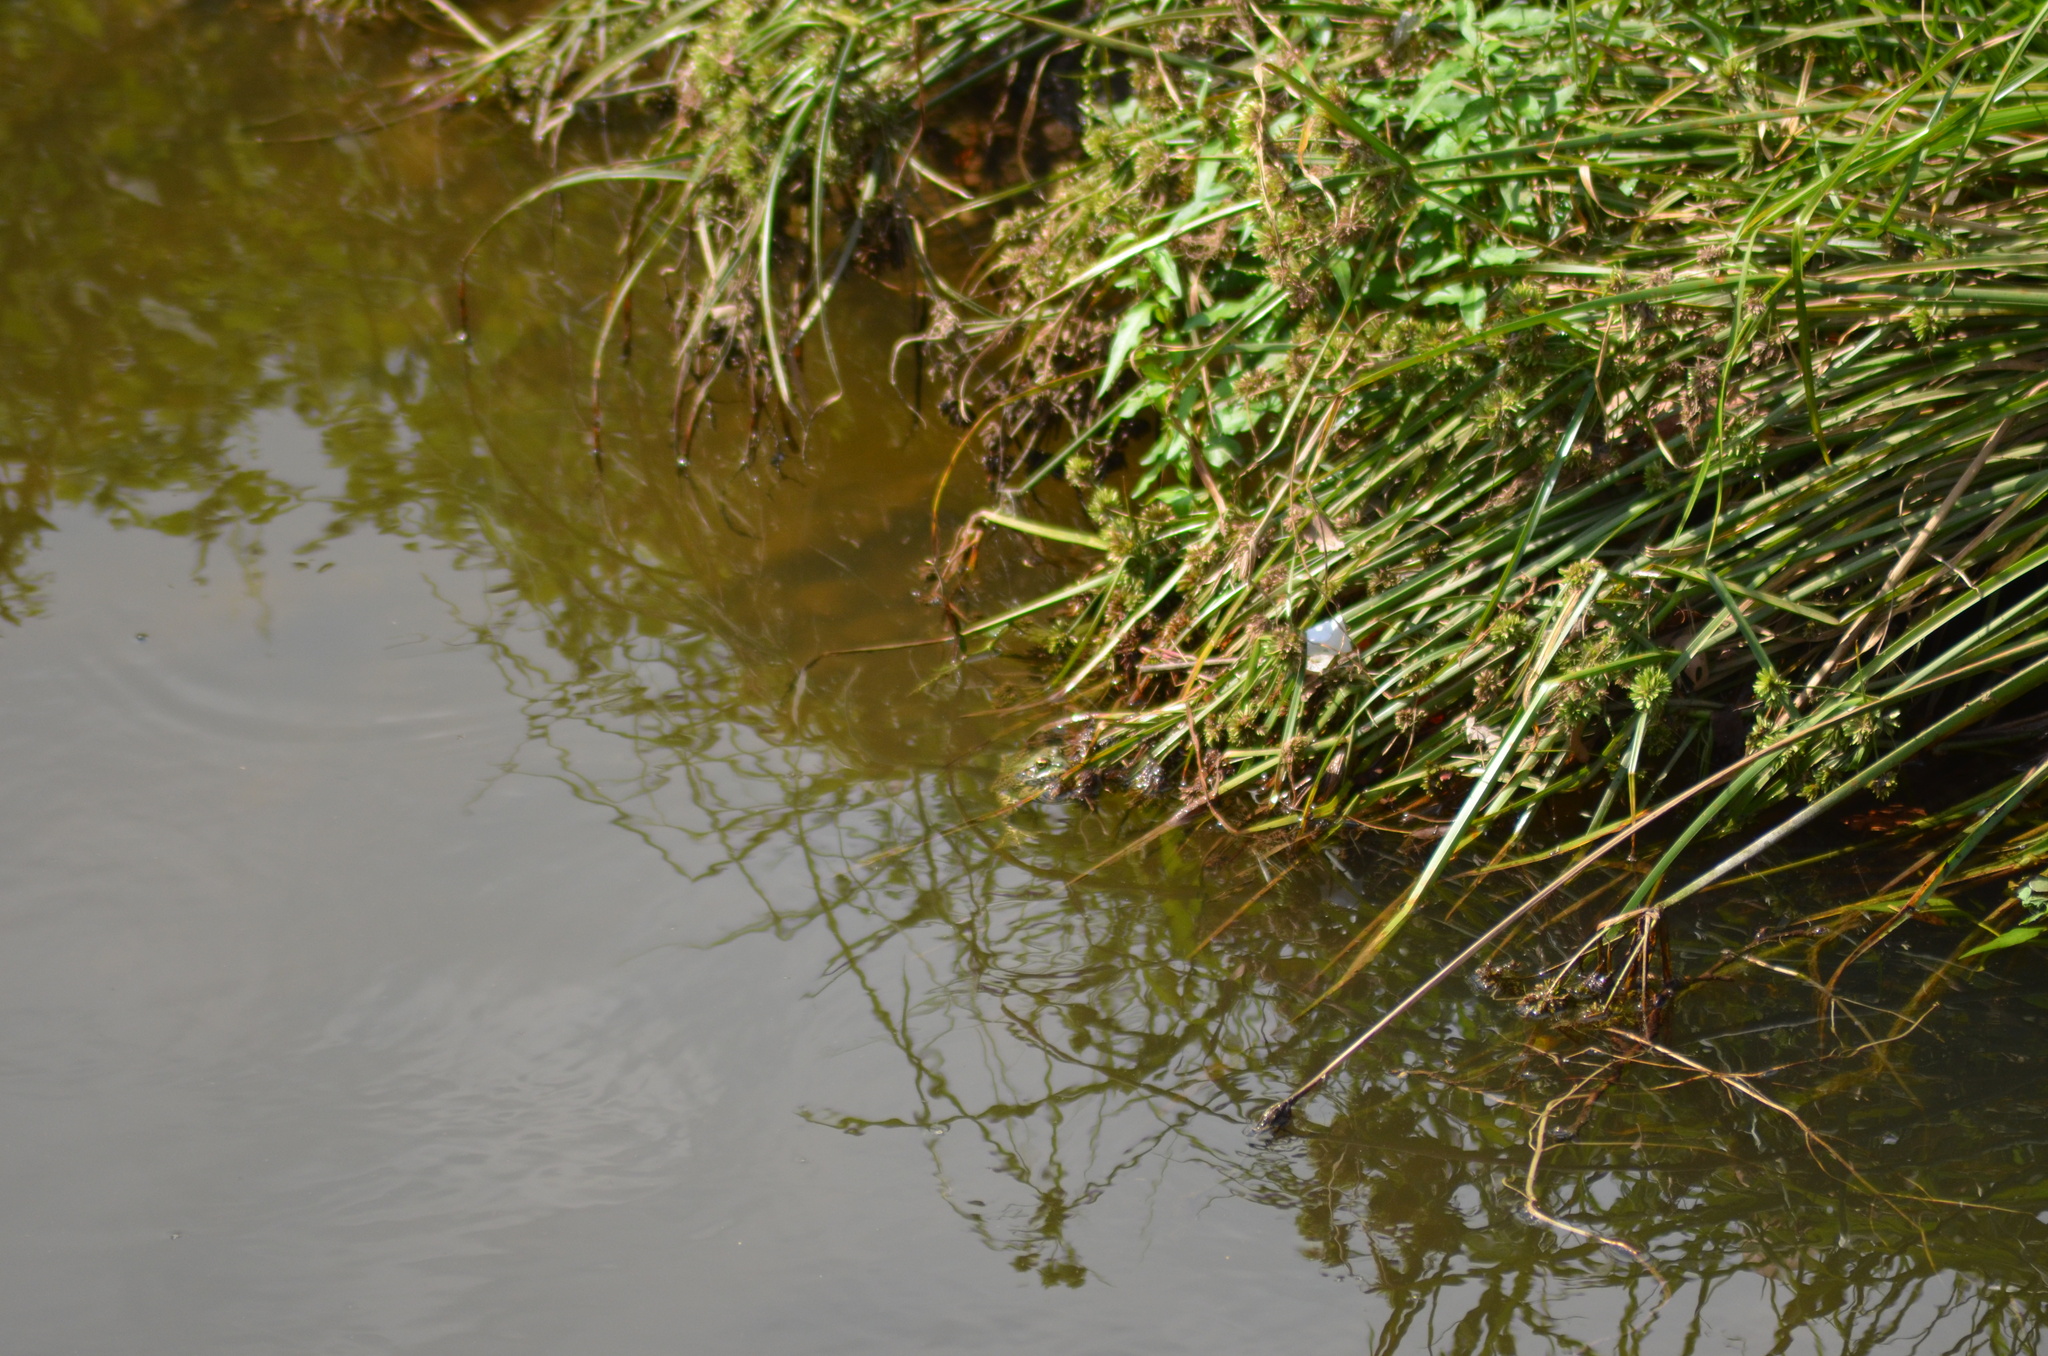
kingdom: Animalia
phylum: Chordata
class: Amphibia
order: Anura
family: Ranidae
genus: Pelophylax
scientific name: Pelophylax perezi
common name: Perez's frog
